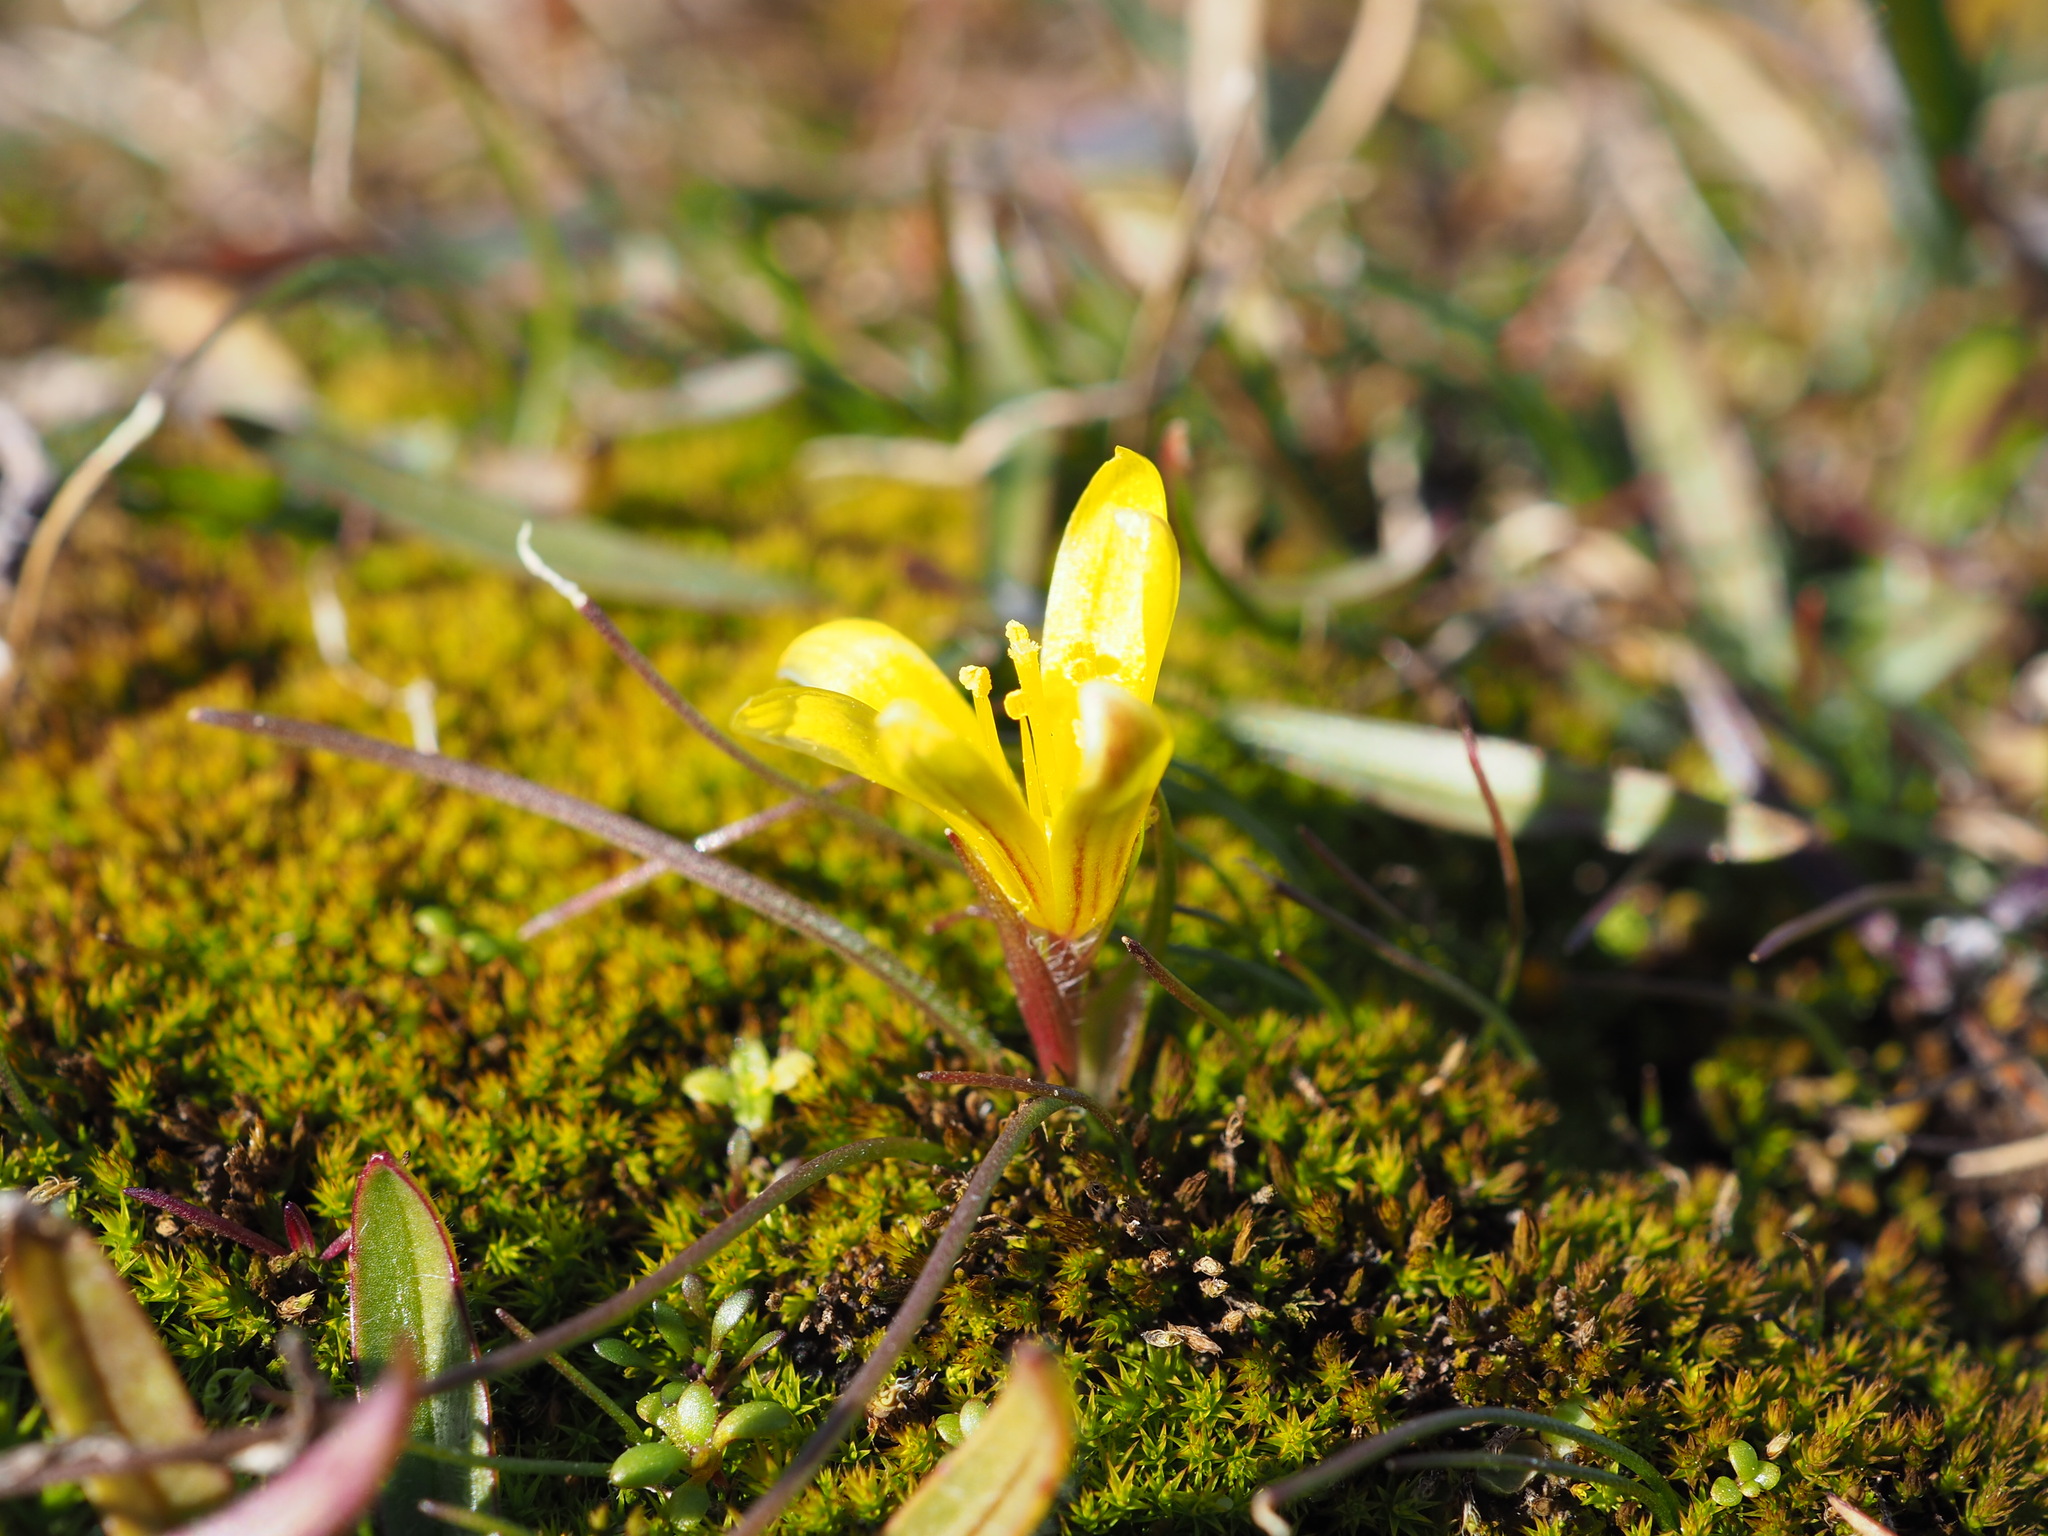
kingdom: Plantae
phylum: Tracheophyta
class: Liliopsida
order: Liliales
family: Liliaceae
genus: Gagea
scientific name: Gagea bohemica
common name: Early star-of-bethlehem
